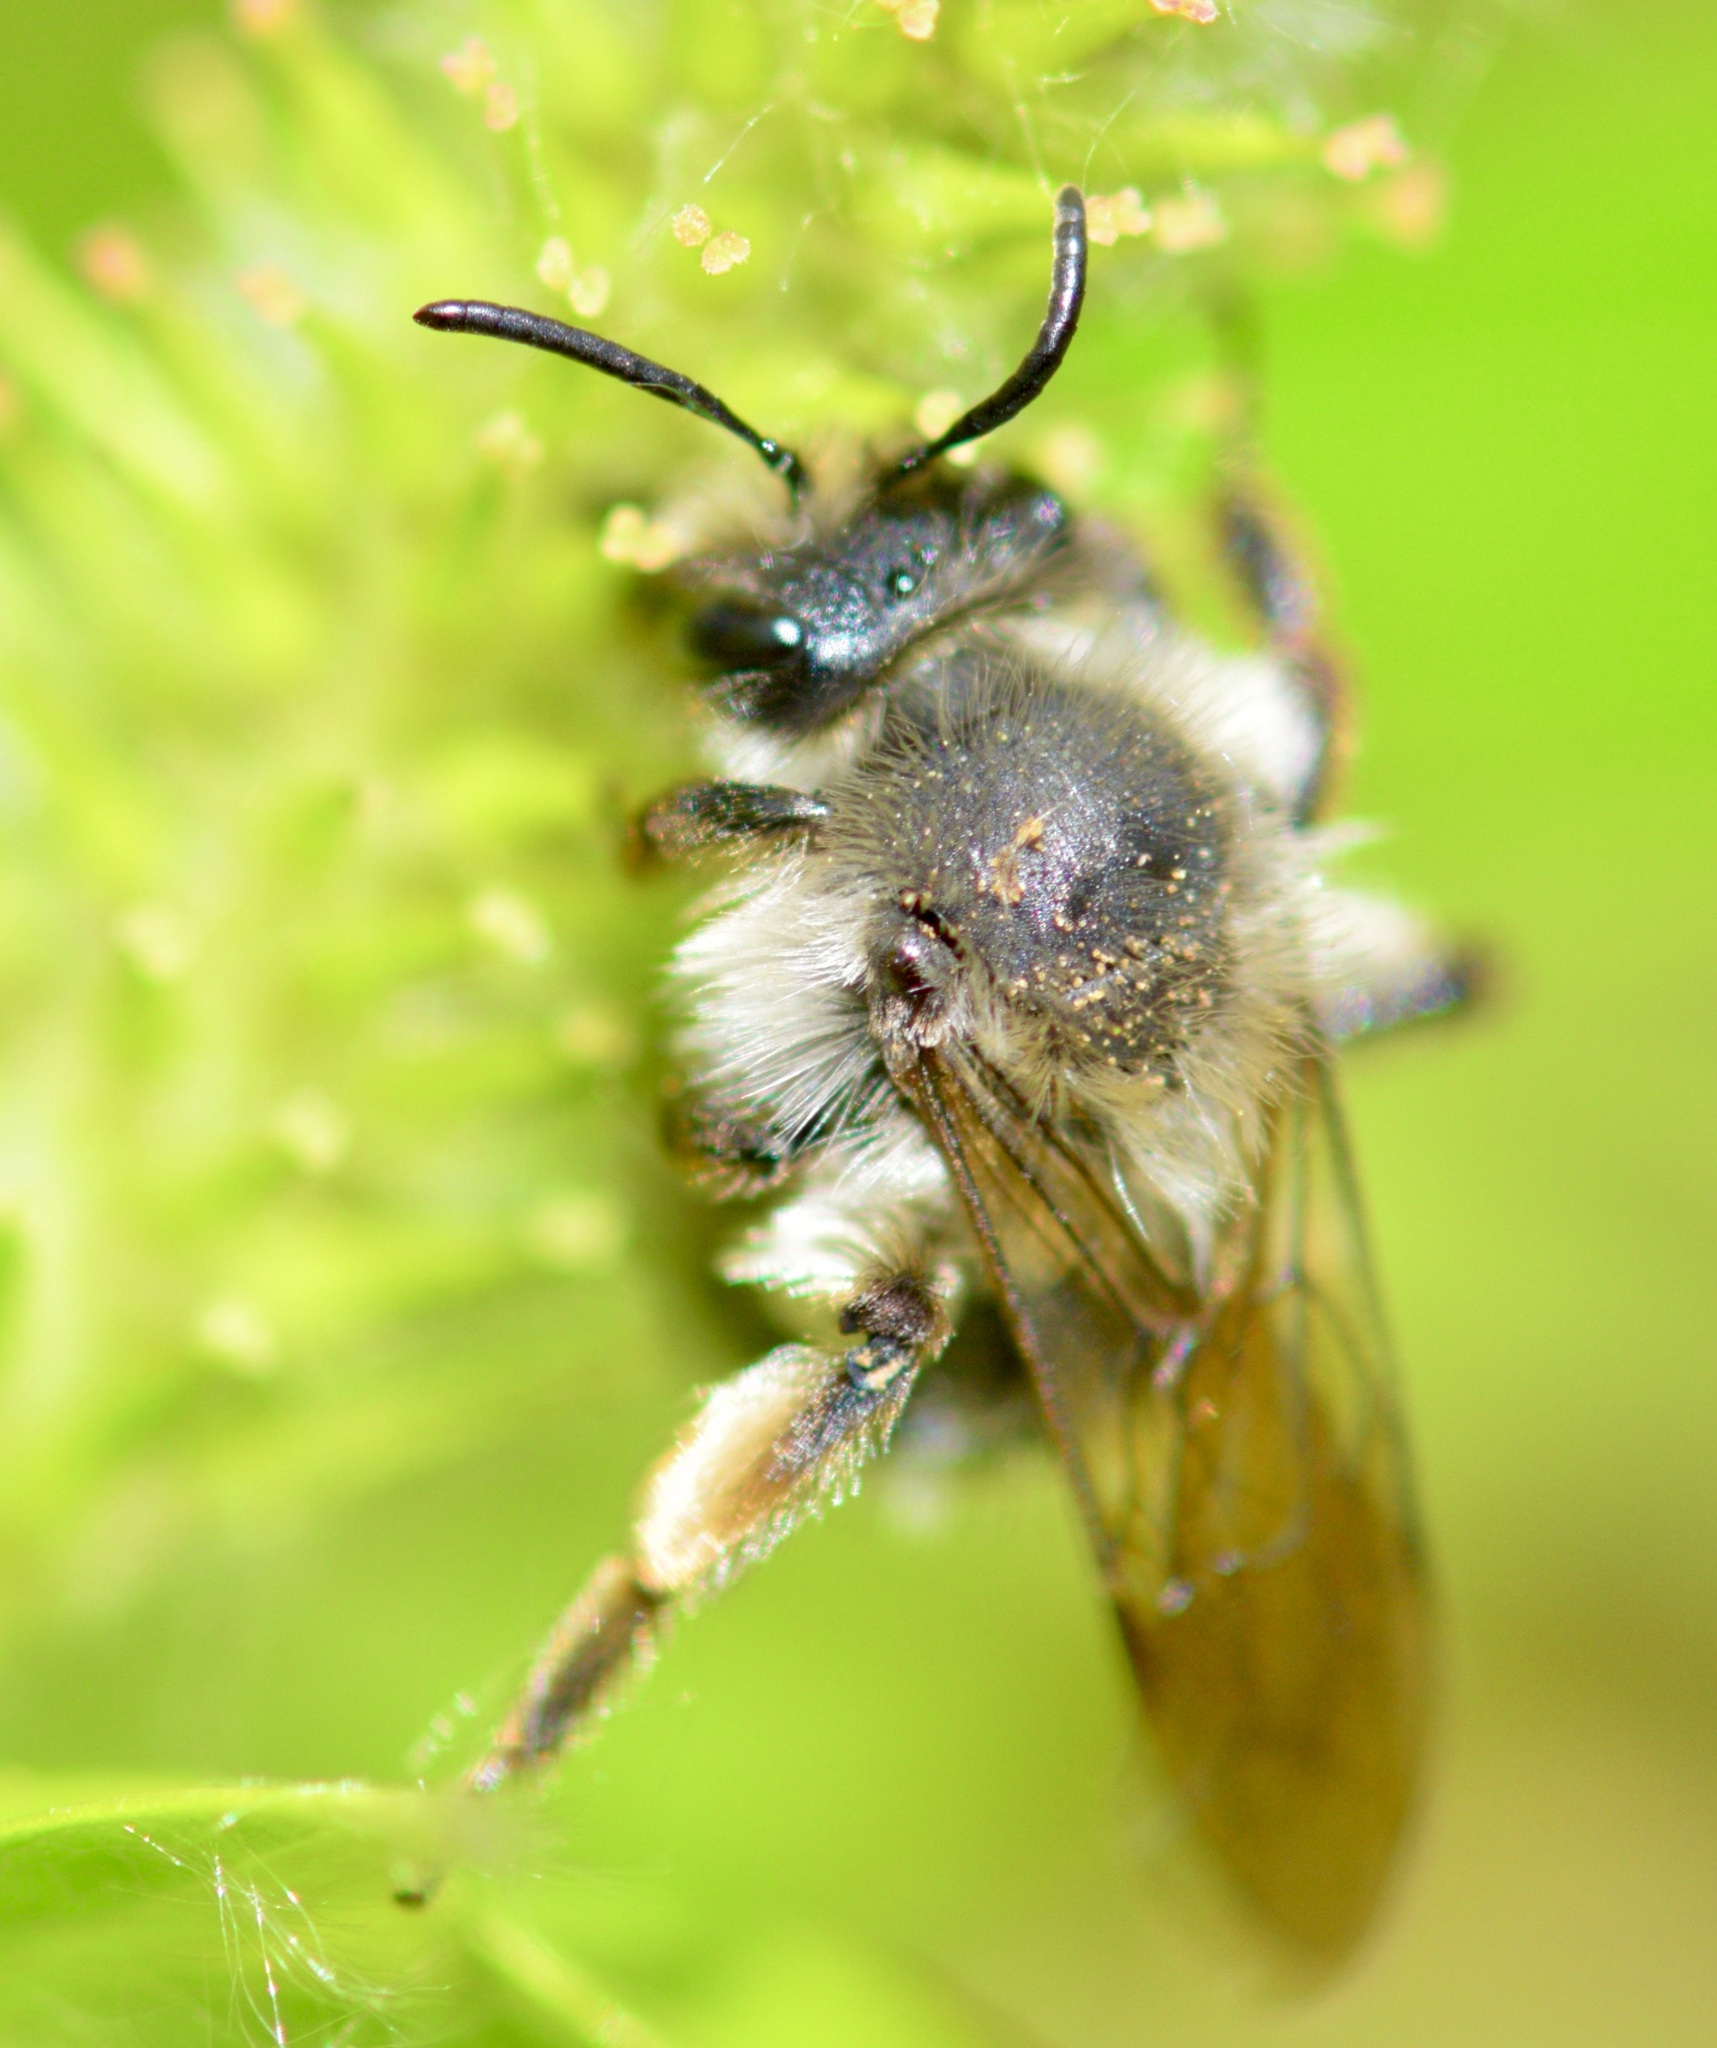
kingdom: Animalia
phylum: Arthropoda
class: Insecta
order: Hymenoptera
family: Andrenidae
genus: Andrena
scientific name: Andrena frigida
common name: Frigid mining bee
